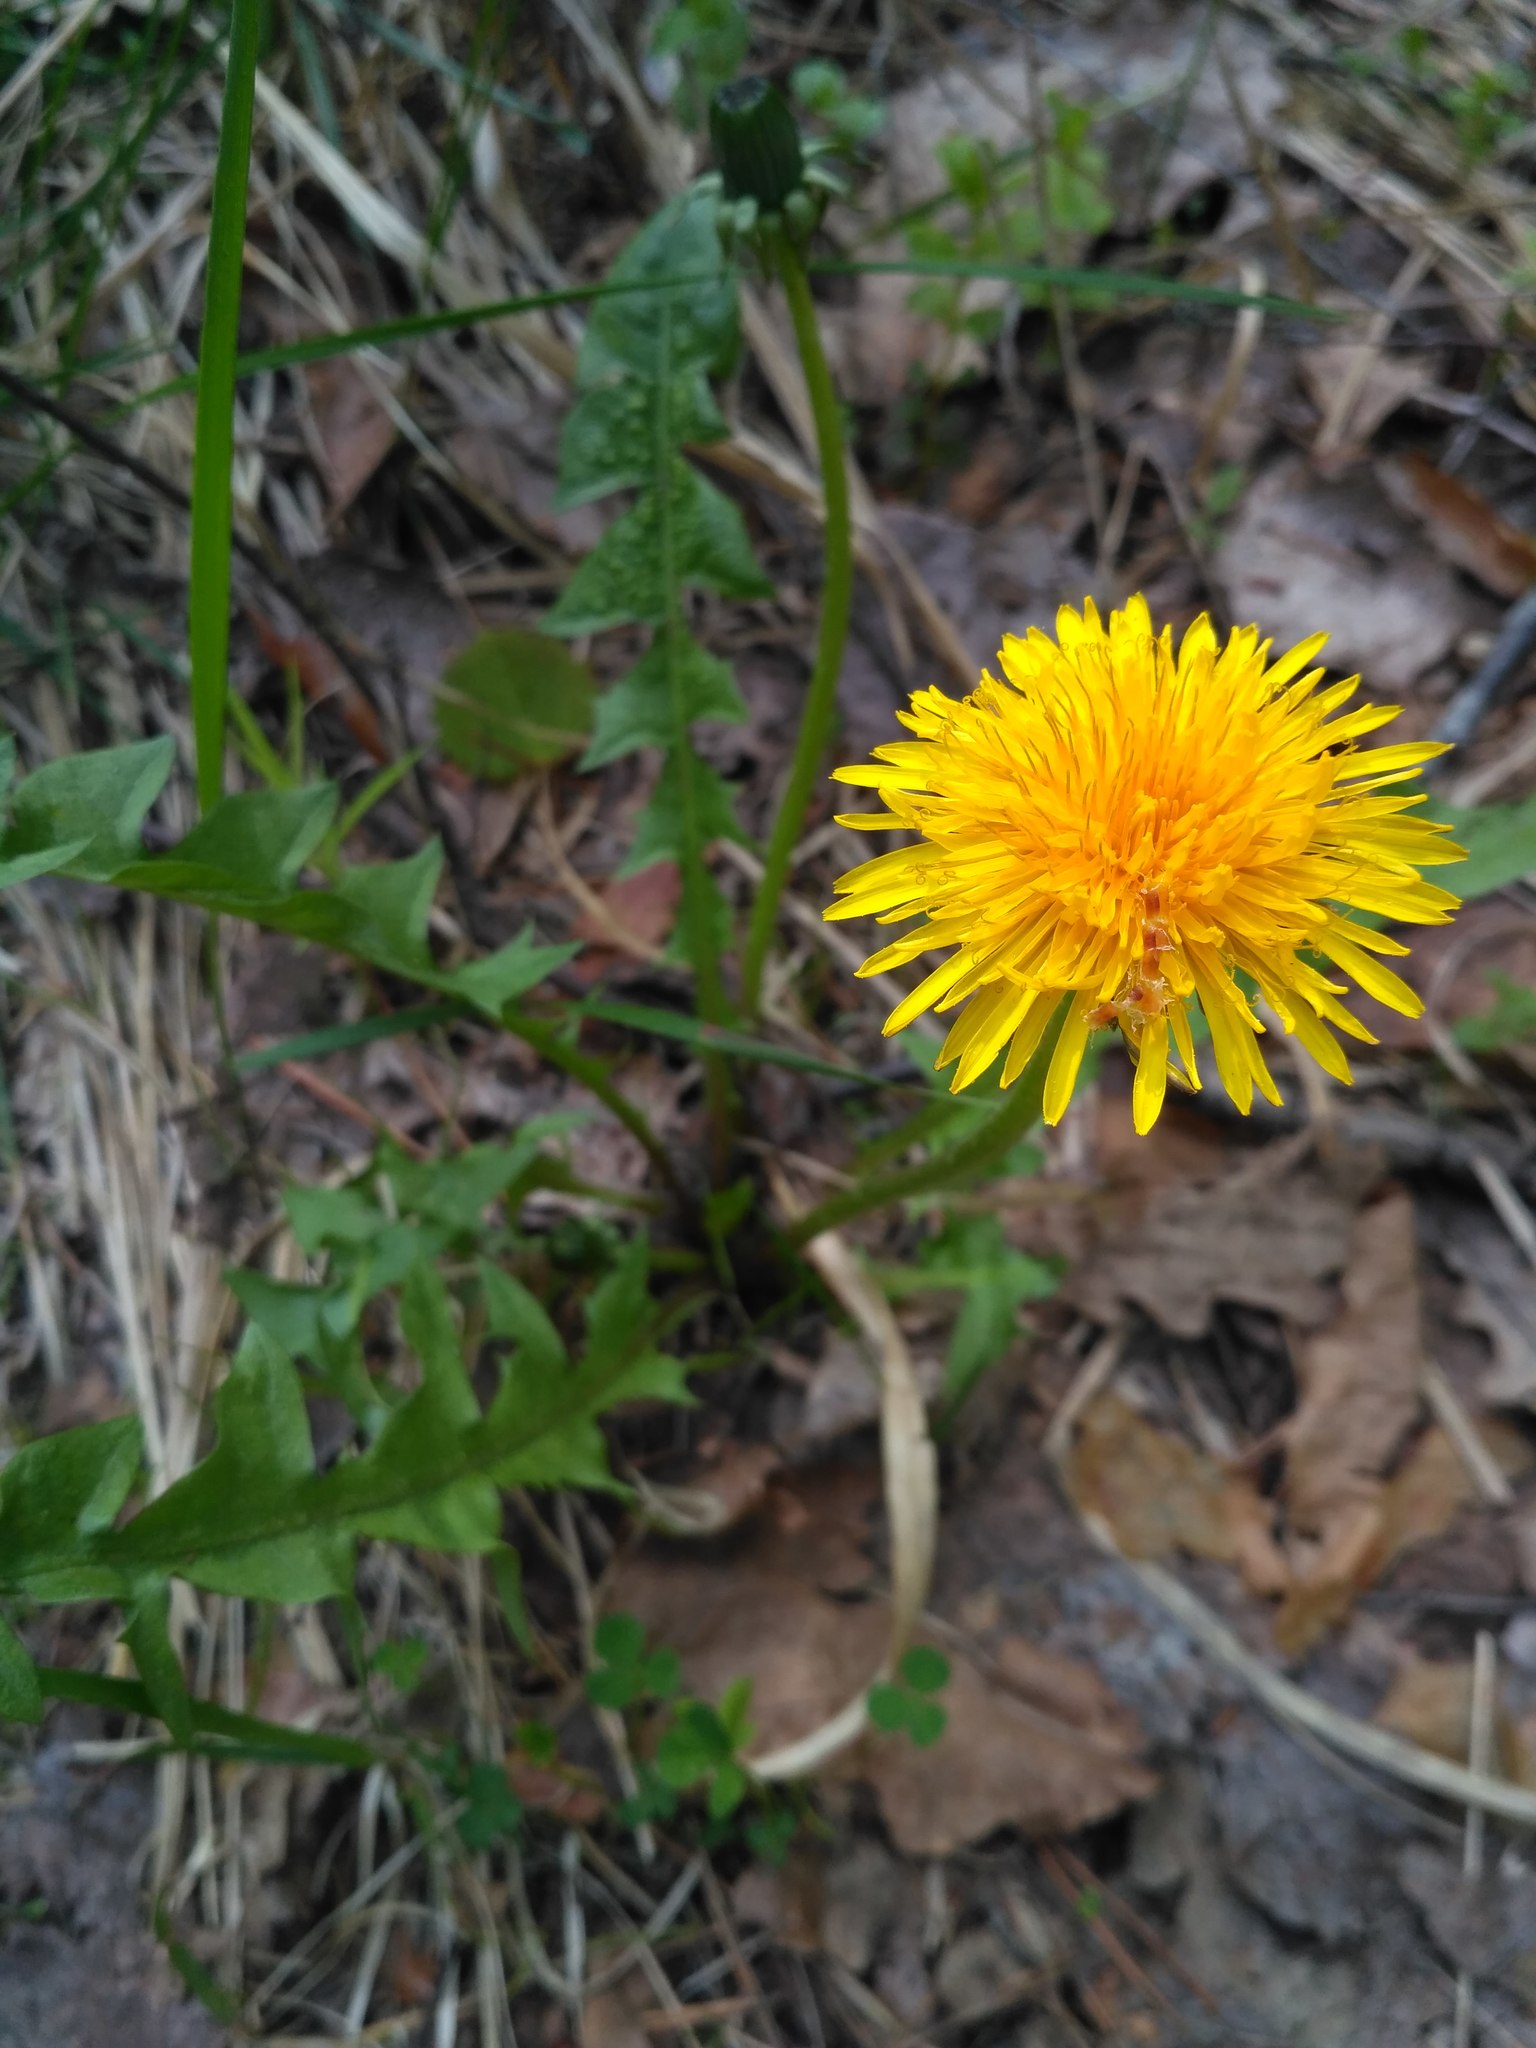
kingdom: Plantae
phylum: Tracheophyta
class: Magnoliopsida
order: Asterales
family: Asteraceae
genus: Taraxacum
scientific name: Taraxacum officinale
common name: Common dandelion
